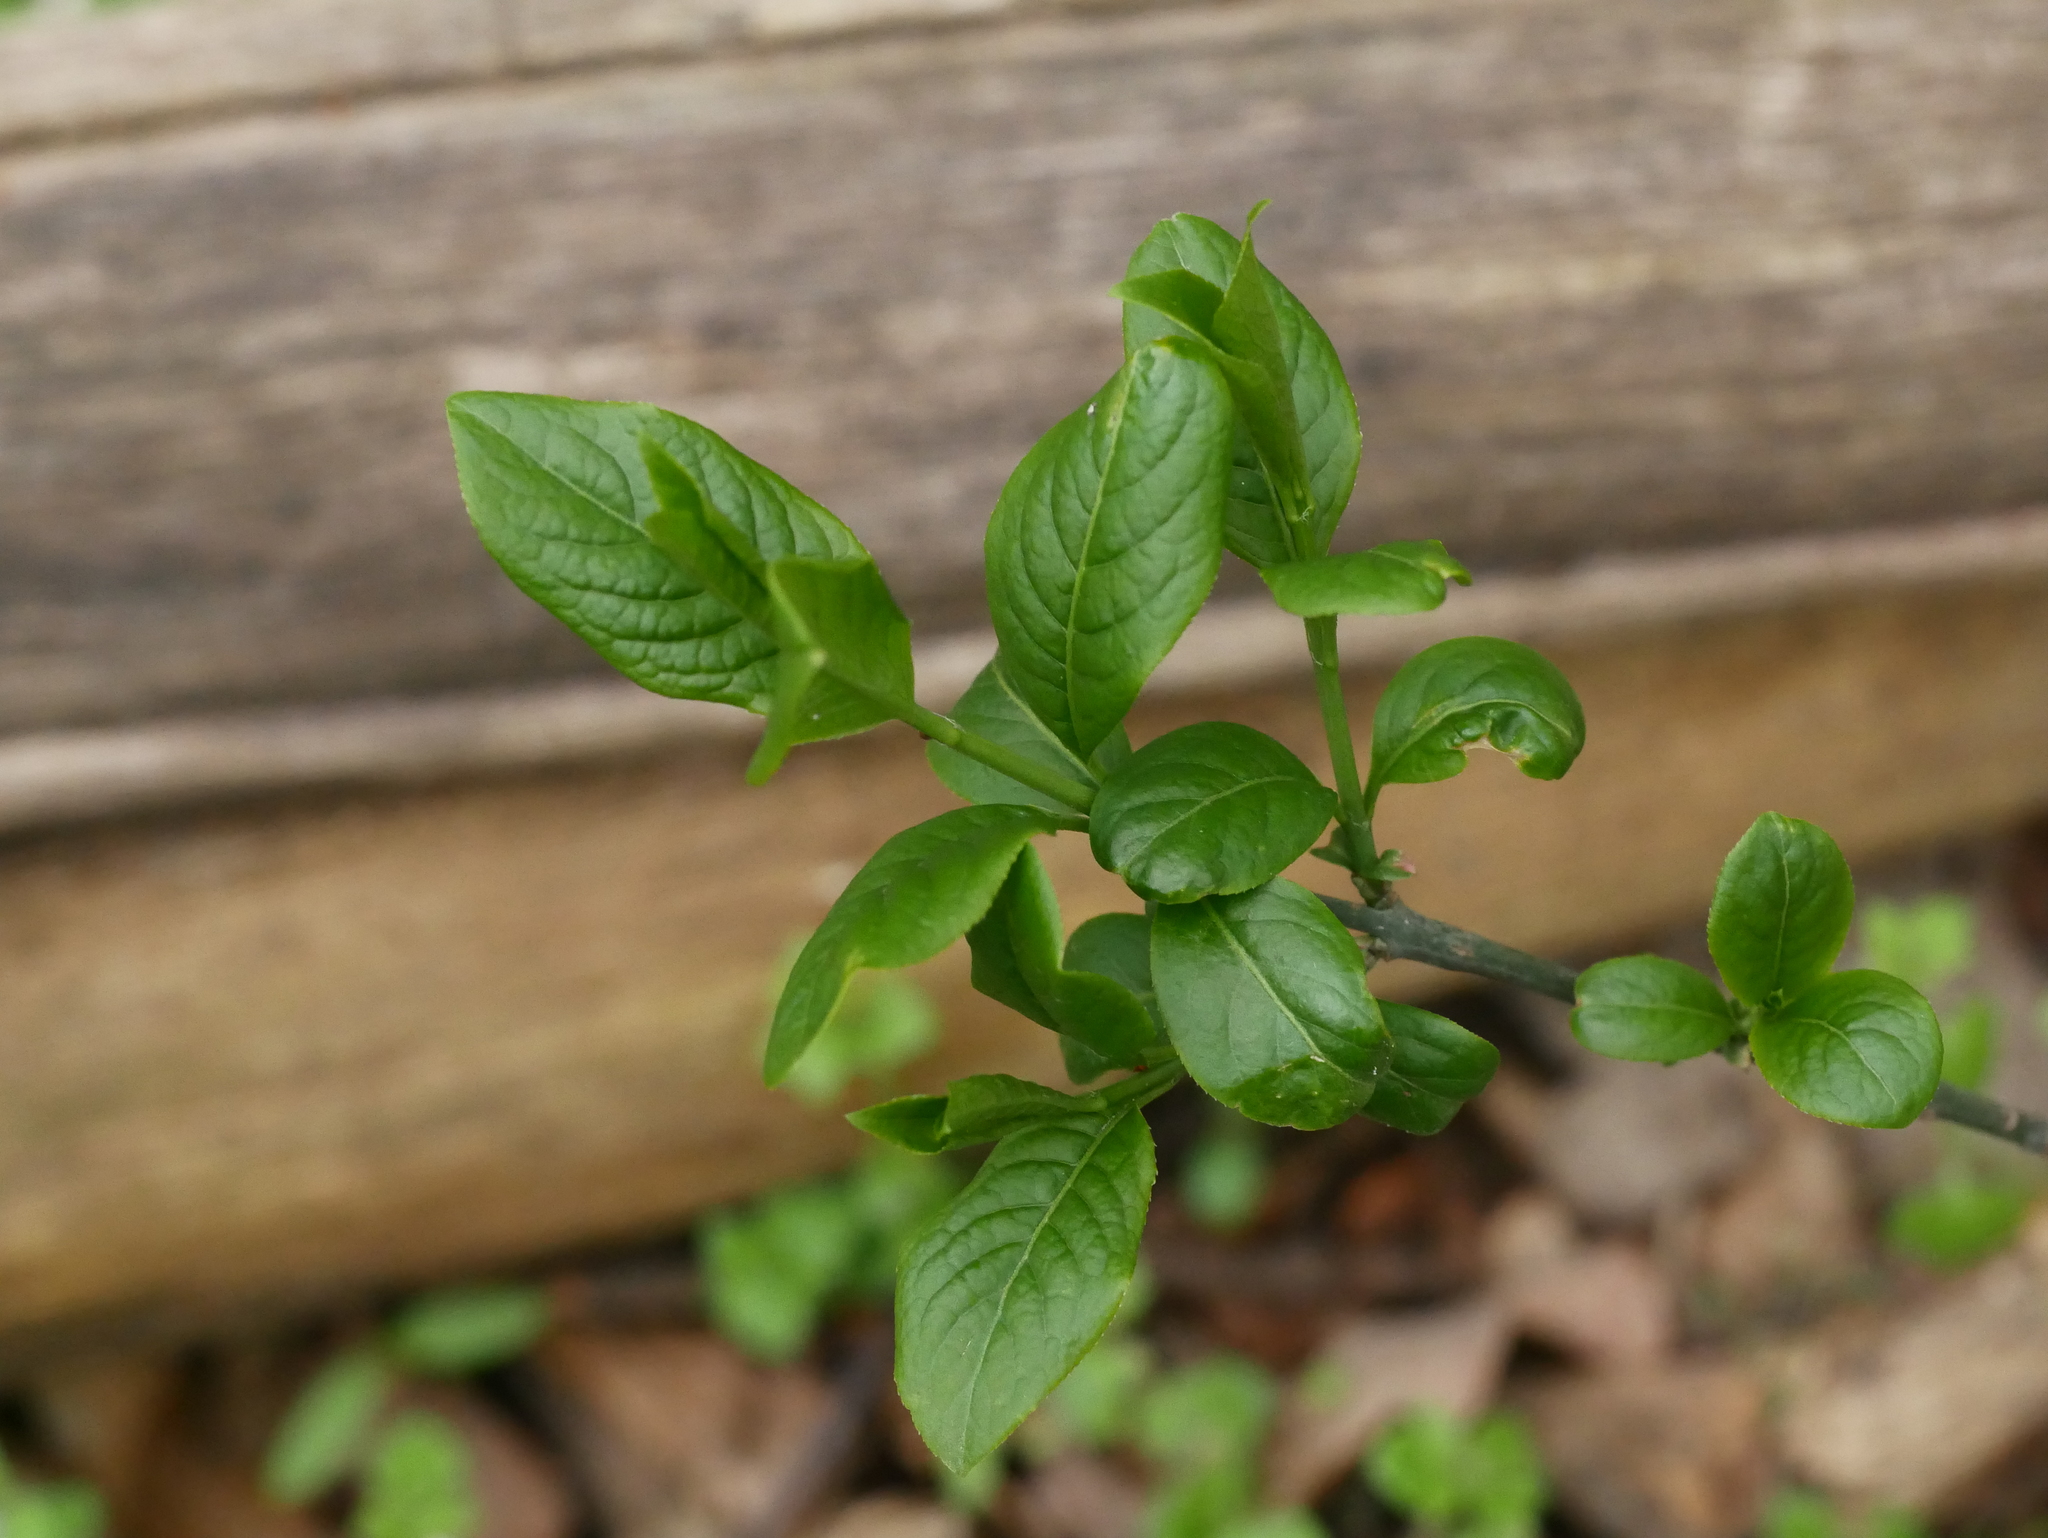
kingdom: Plantae
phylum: Tracheophyta
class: Magnoliopsida
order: Celastrales
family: Celastraceae
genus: Euonymus
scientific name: Euonymus europaeus
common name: Spindle
